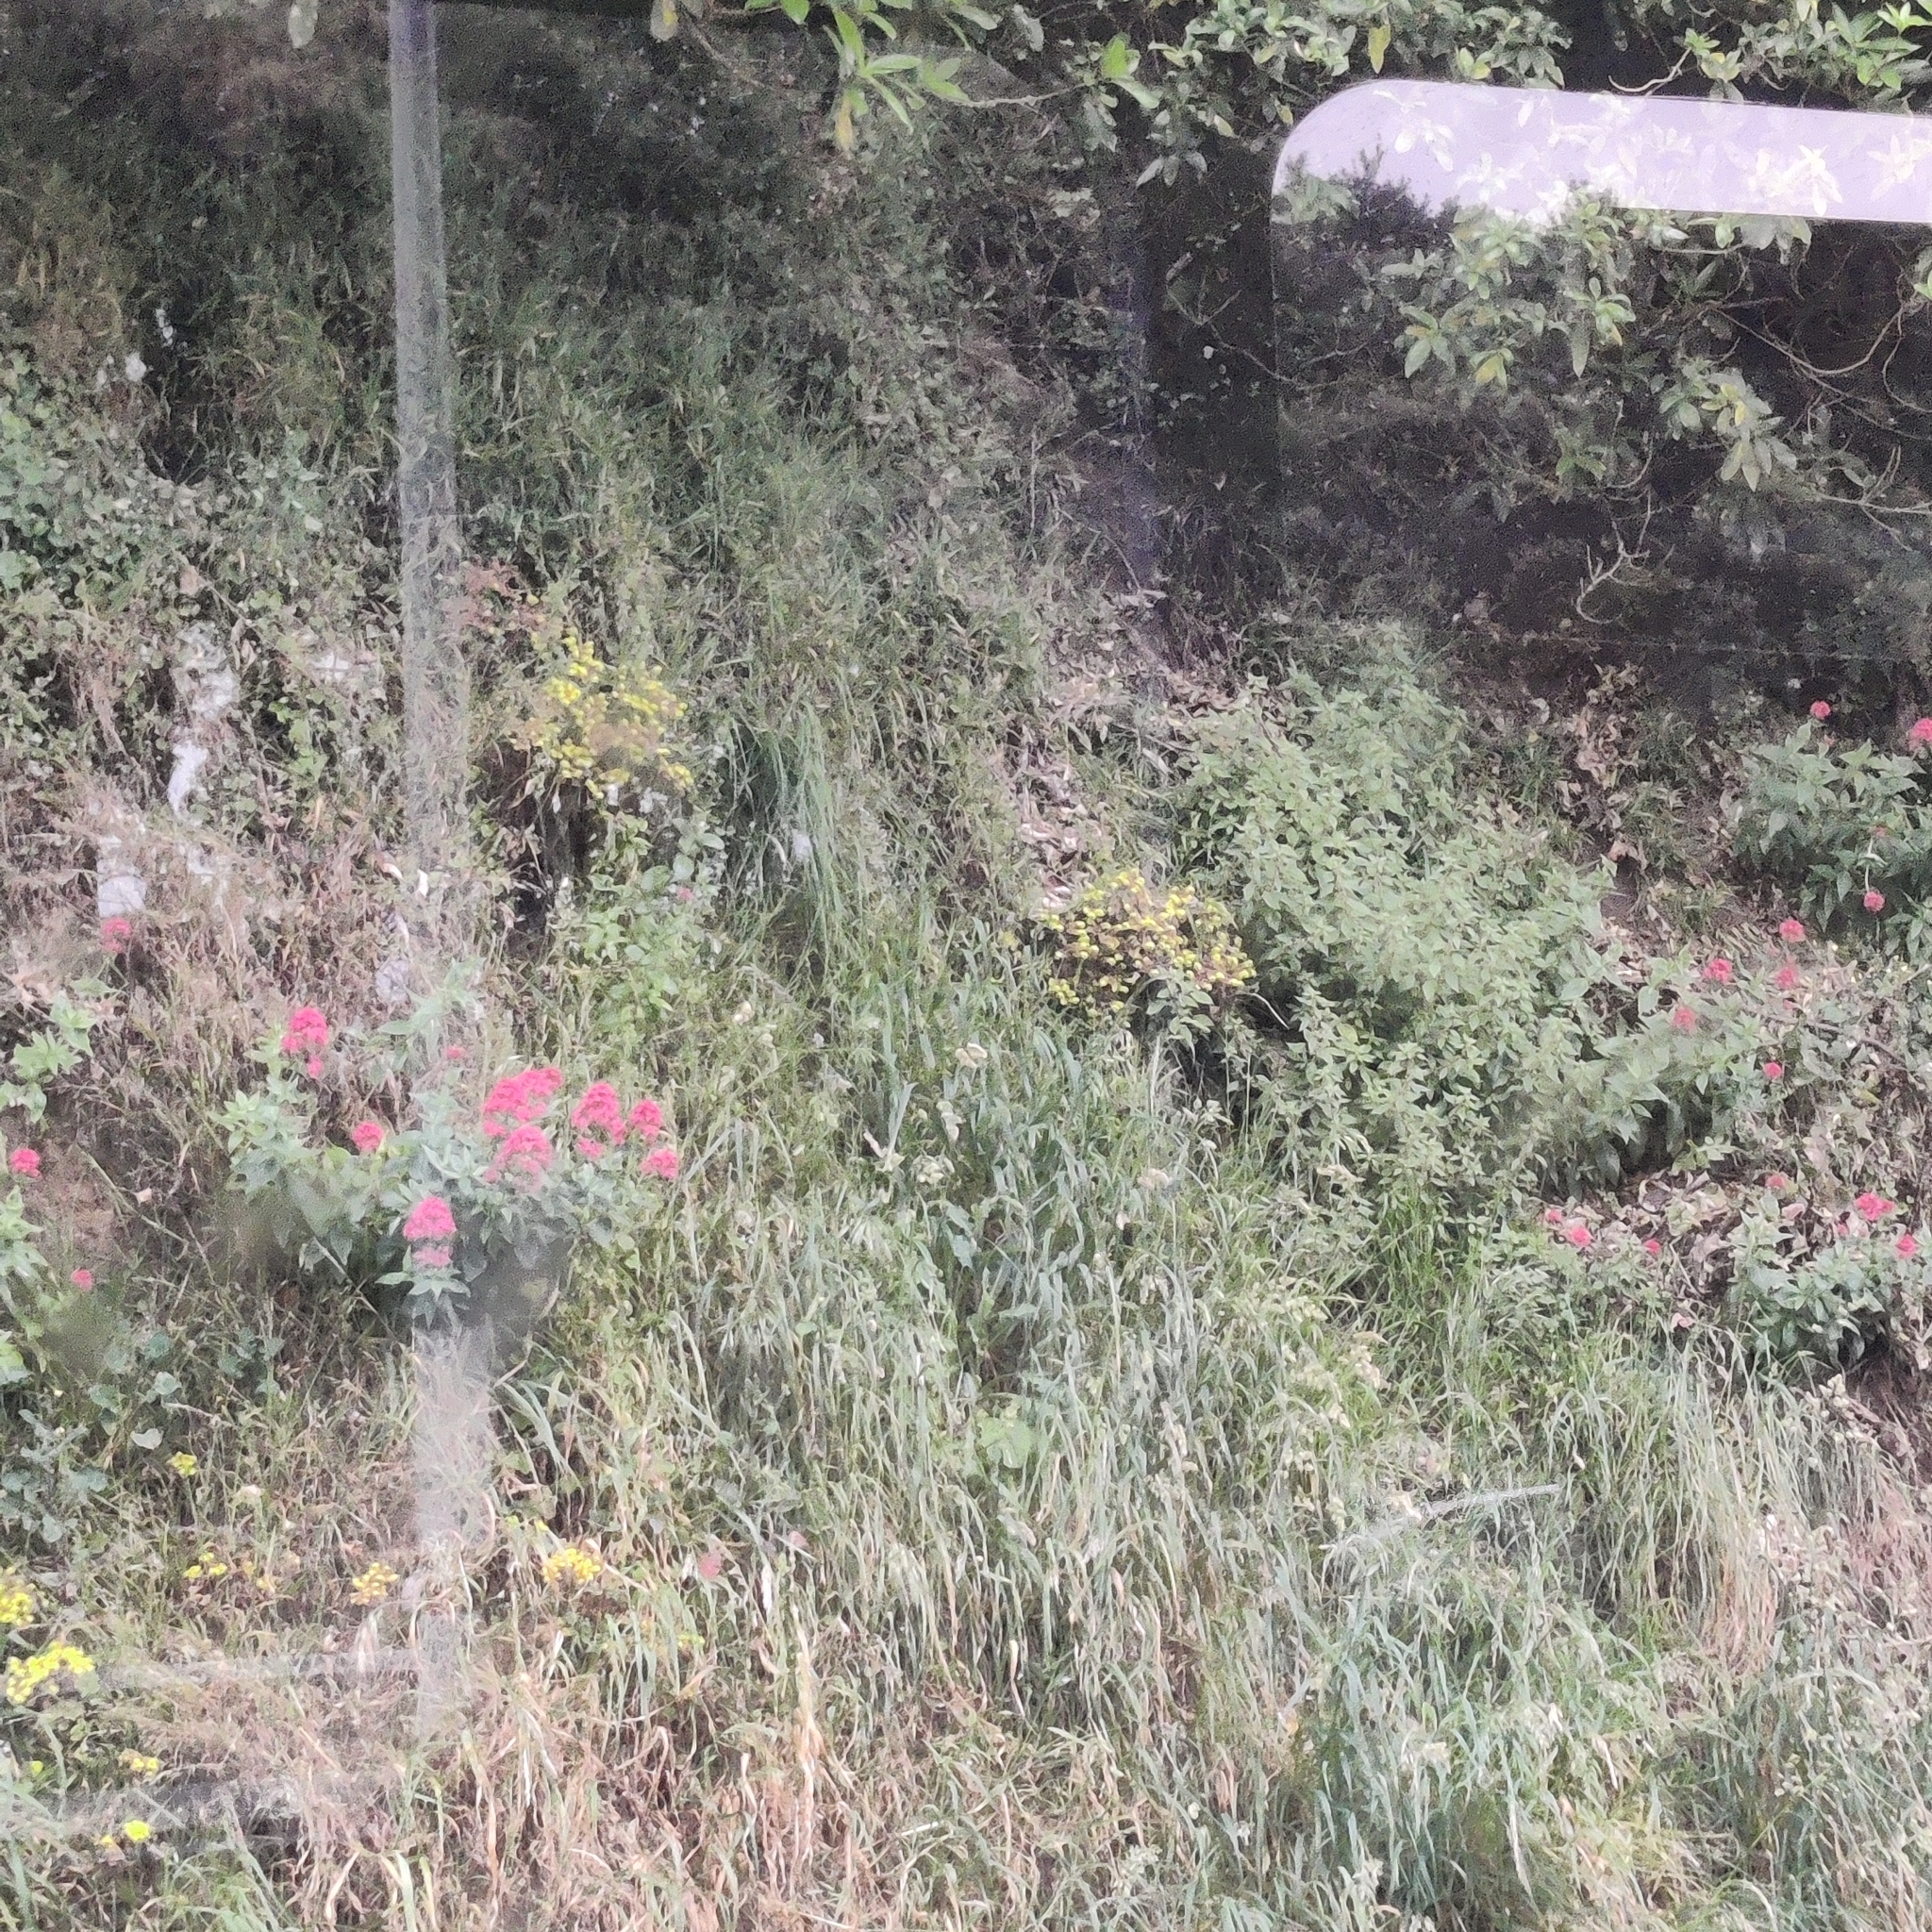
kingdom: Plantae
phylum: Tracheophyta
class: Magnoliopsida
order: Saxifragales
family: Crassulaceae
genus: Aichryson
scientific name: Aichryson laxum
